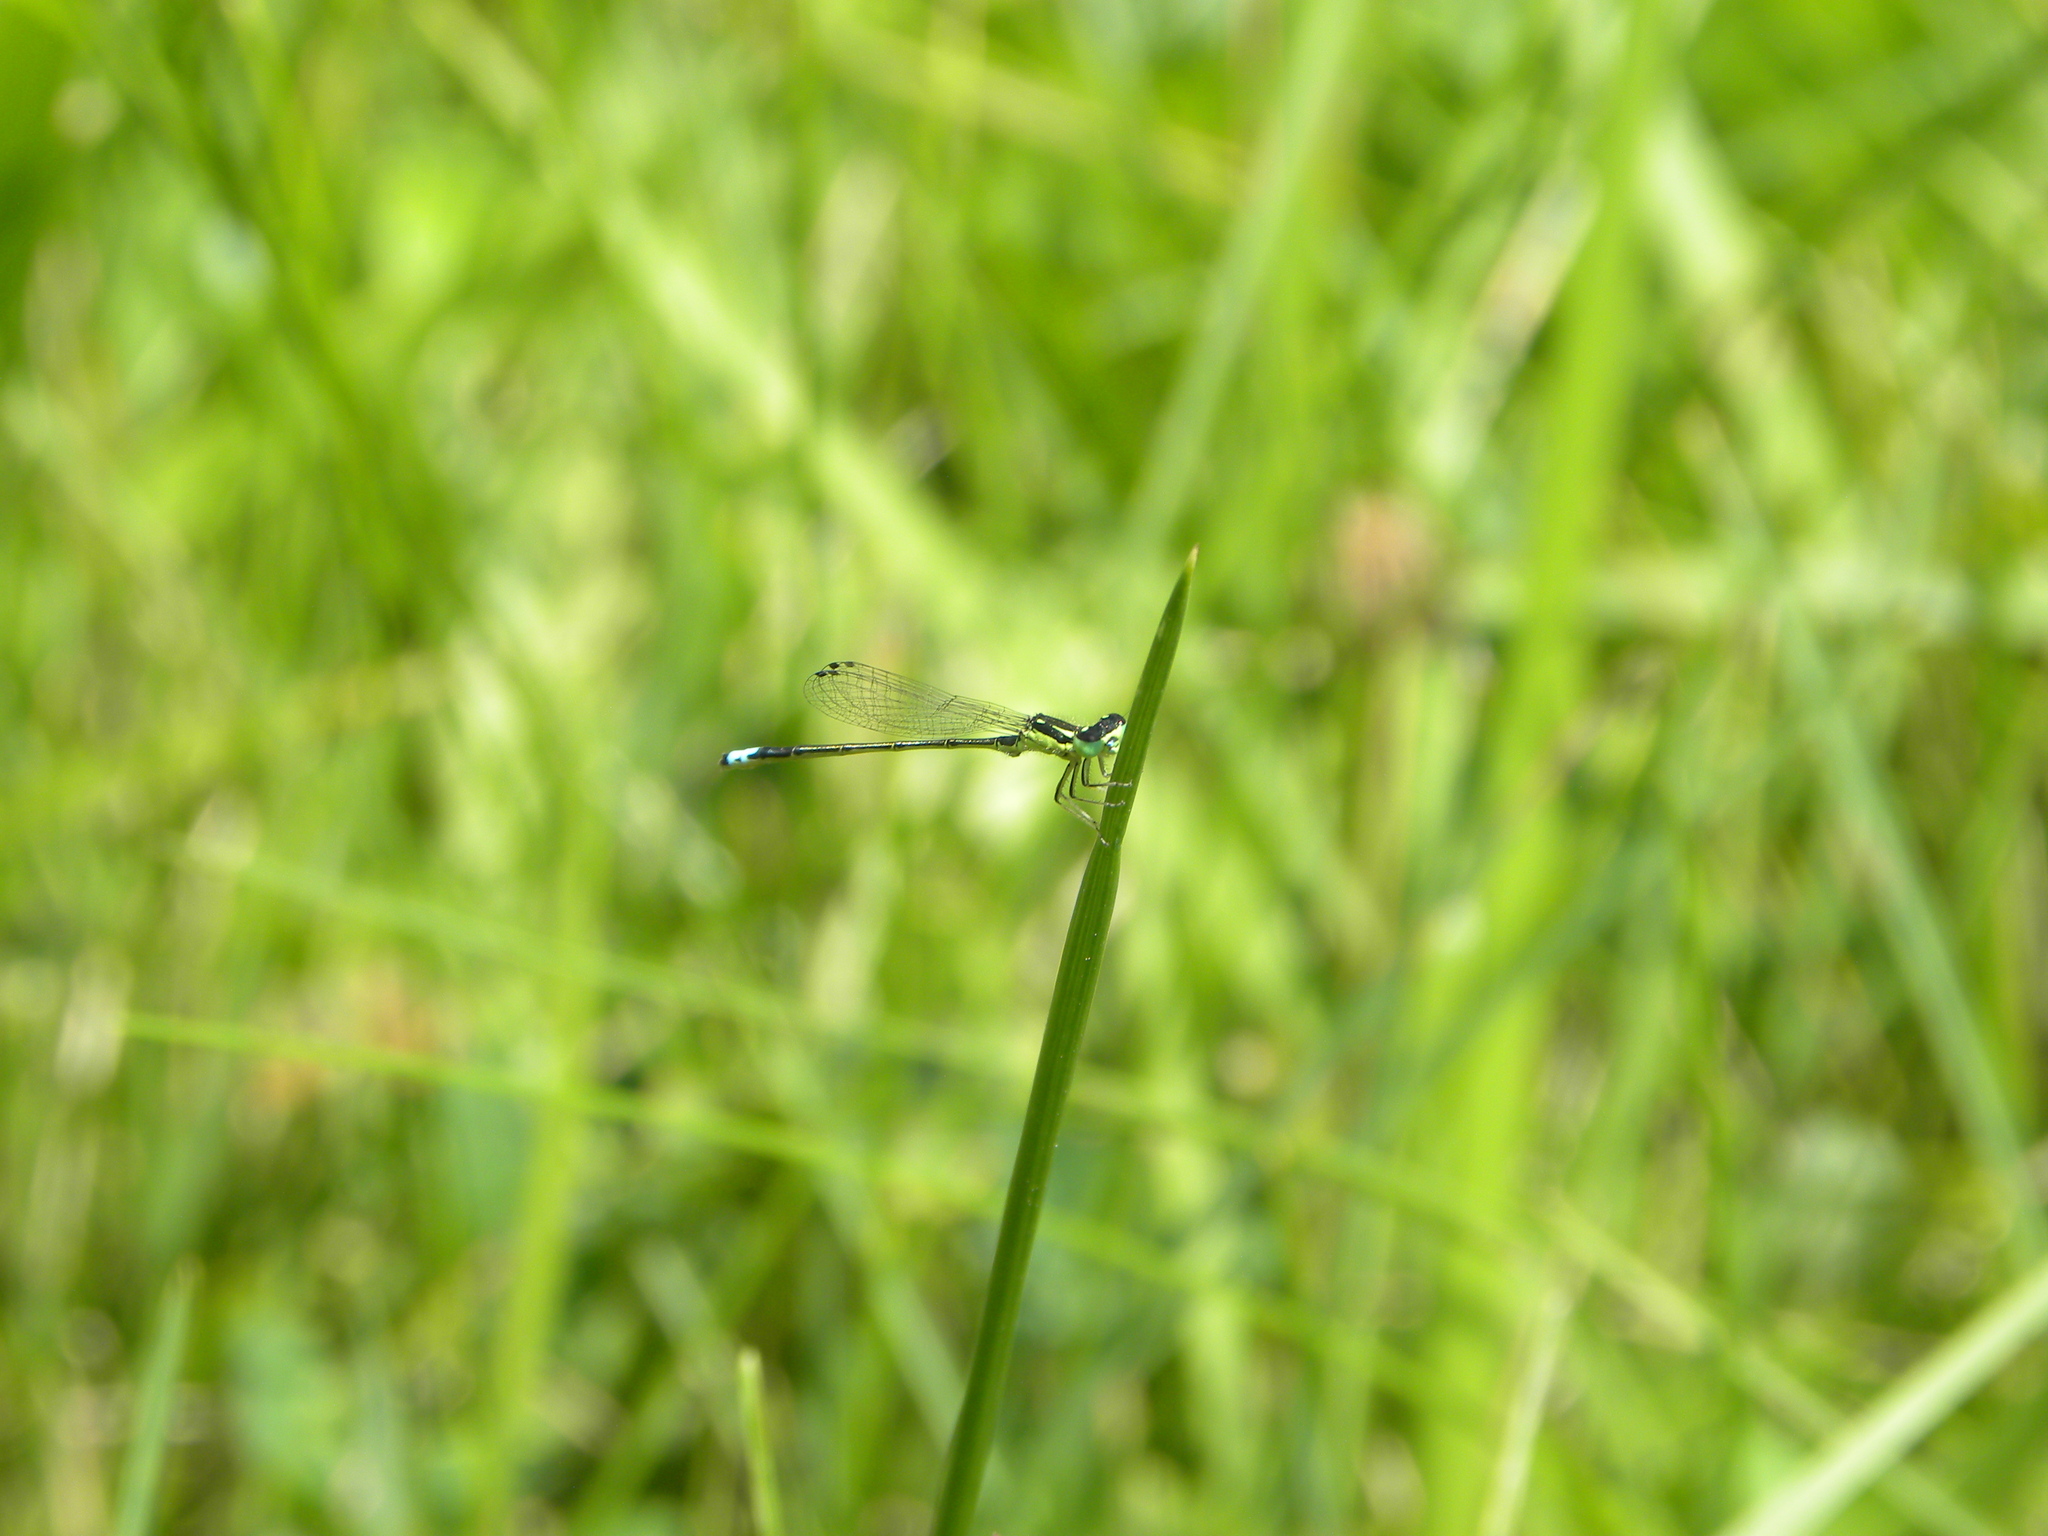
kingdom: Animalia
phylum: Arthropoda
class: Insecta
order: Odonata
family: Coenagrionidae
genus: Ischnura
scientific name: Ischnura
